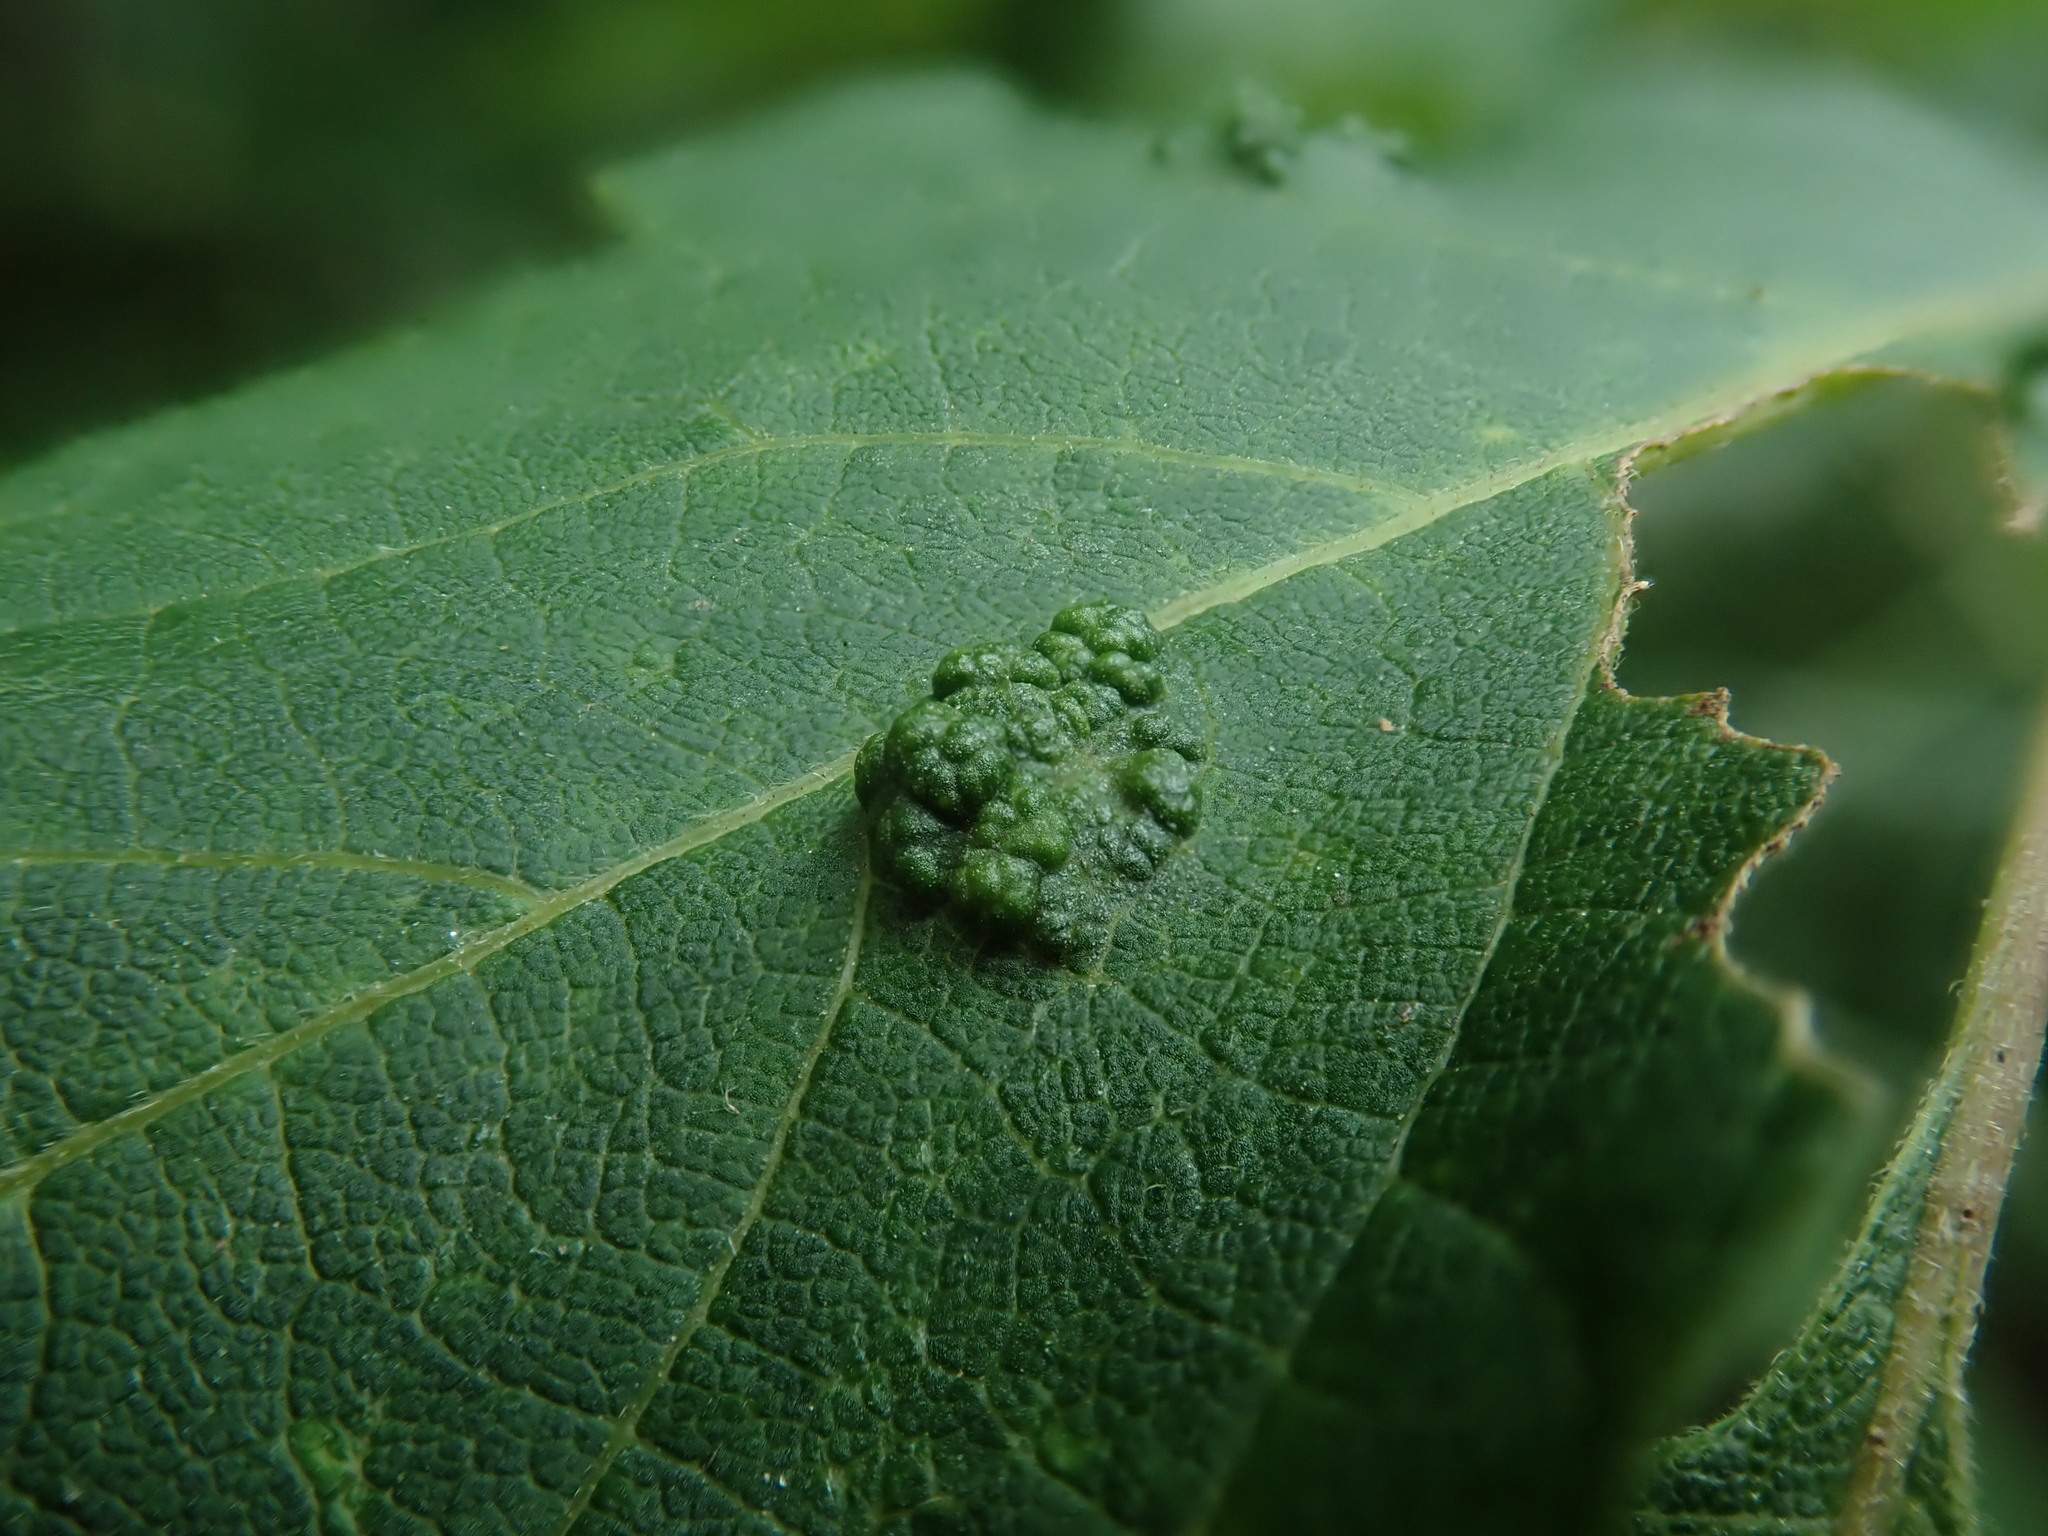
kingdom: Animalia
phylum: Arthropoda
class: Arachnida
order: Trombidiformes
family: Eriophyidae
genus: Aceria
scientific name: Aceria
